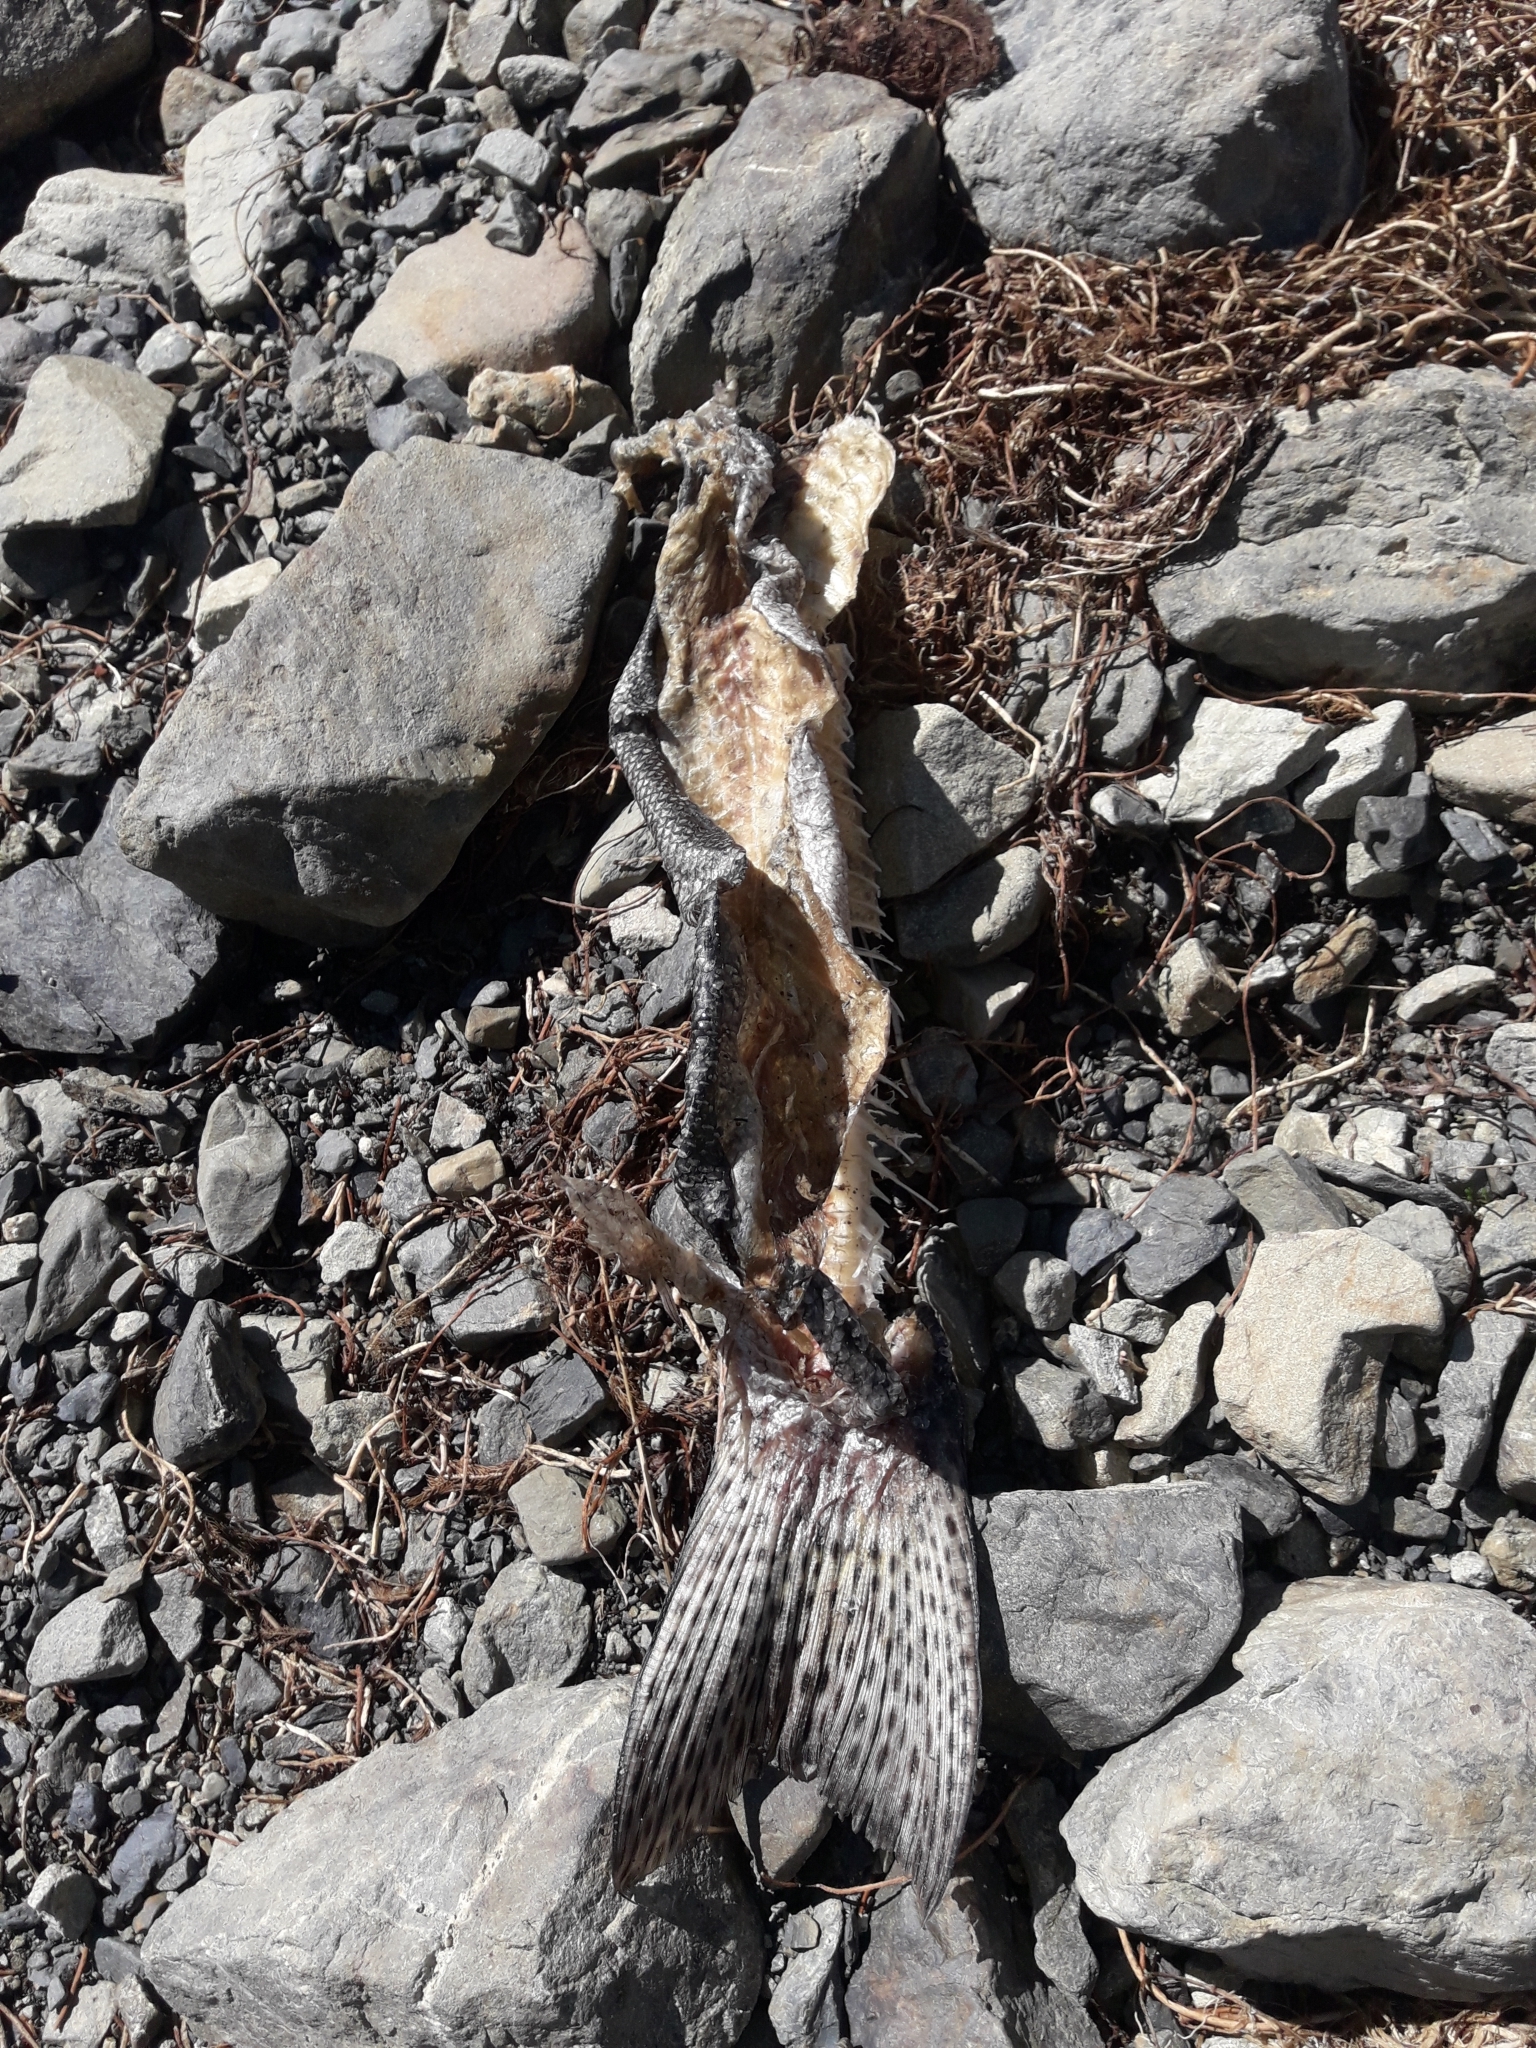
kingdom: Animalia
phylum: Chordata
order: Salmoniformes
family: Salmonidae
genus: Oncorhynchus
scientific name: Oncorhynchus mykiss
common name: Rainbow trout
